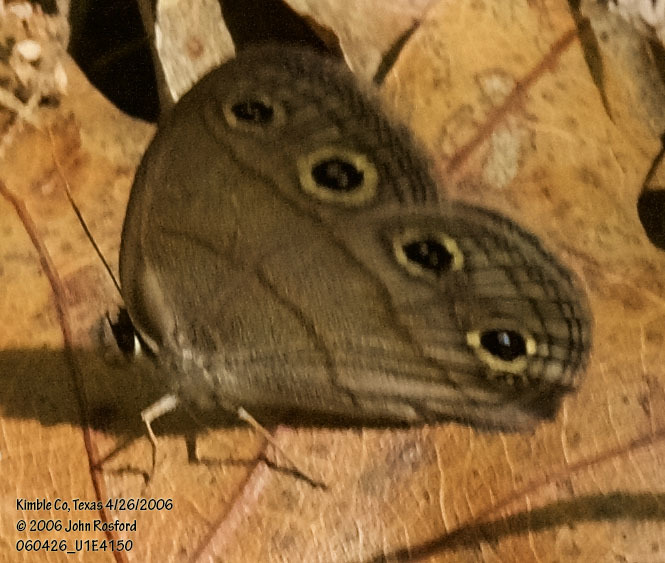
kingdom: Animalia
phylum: Arthropoda
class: Insecta
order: Lepidoptera
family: Nymphalidae
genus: Euptychia
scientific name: Euptychia cymela
